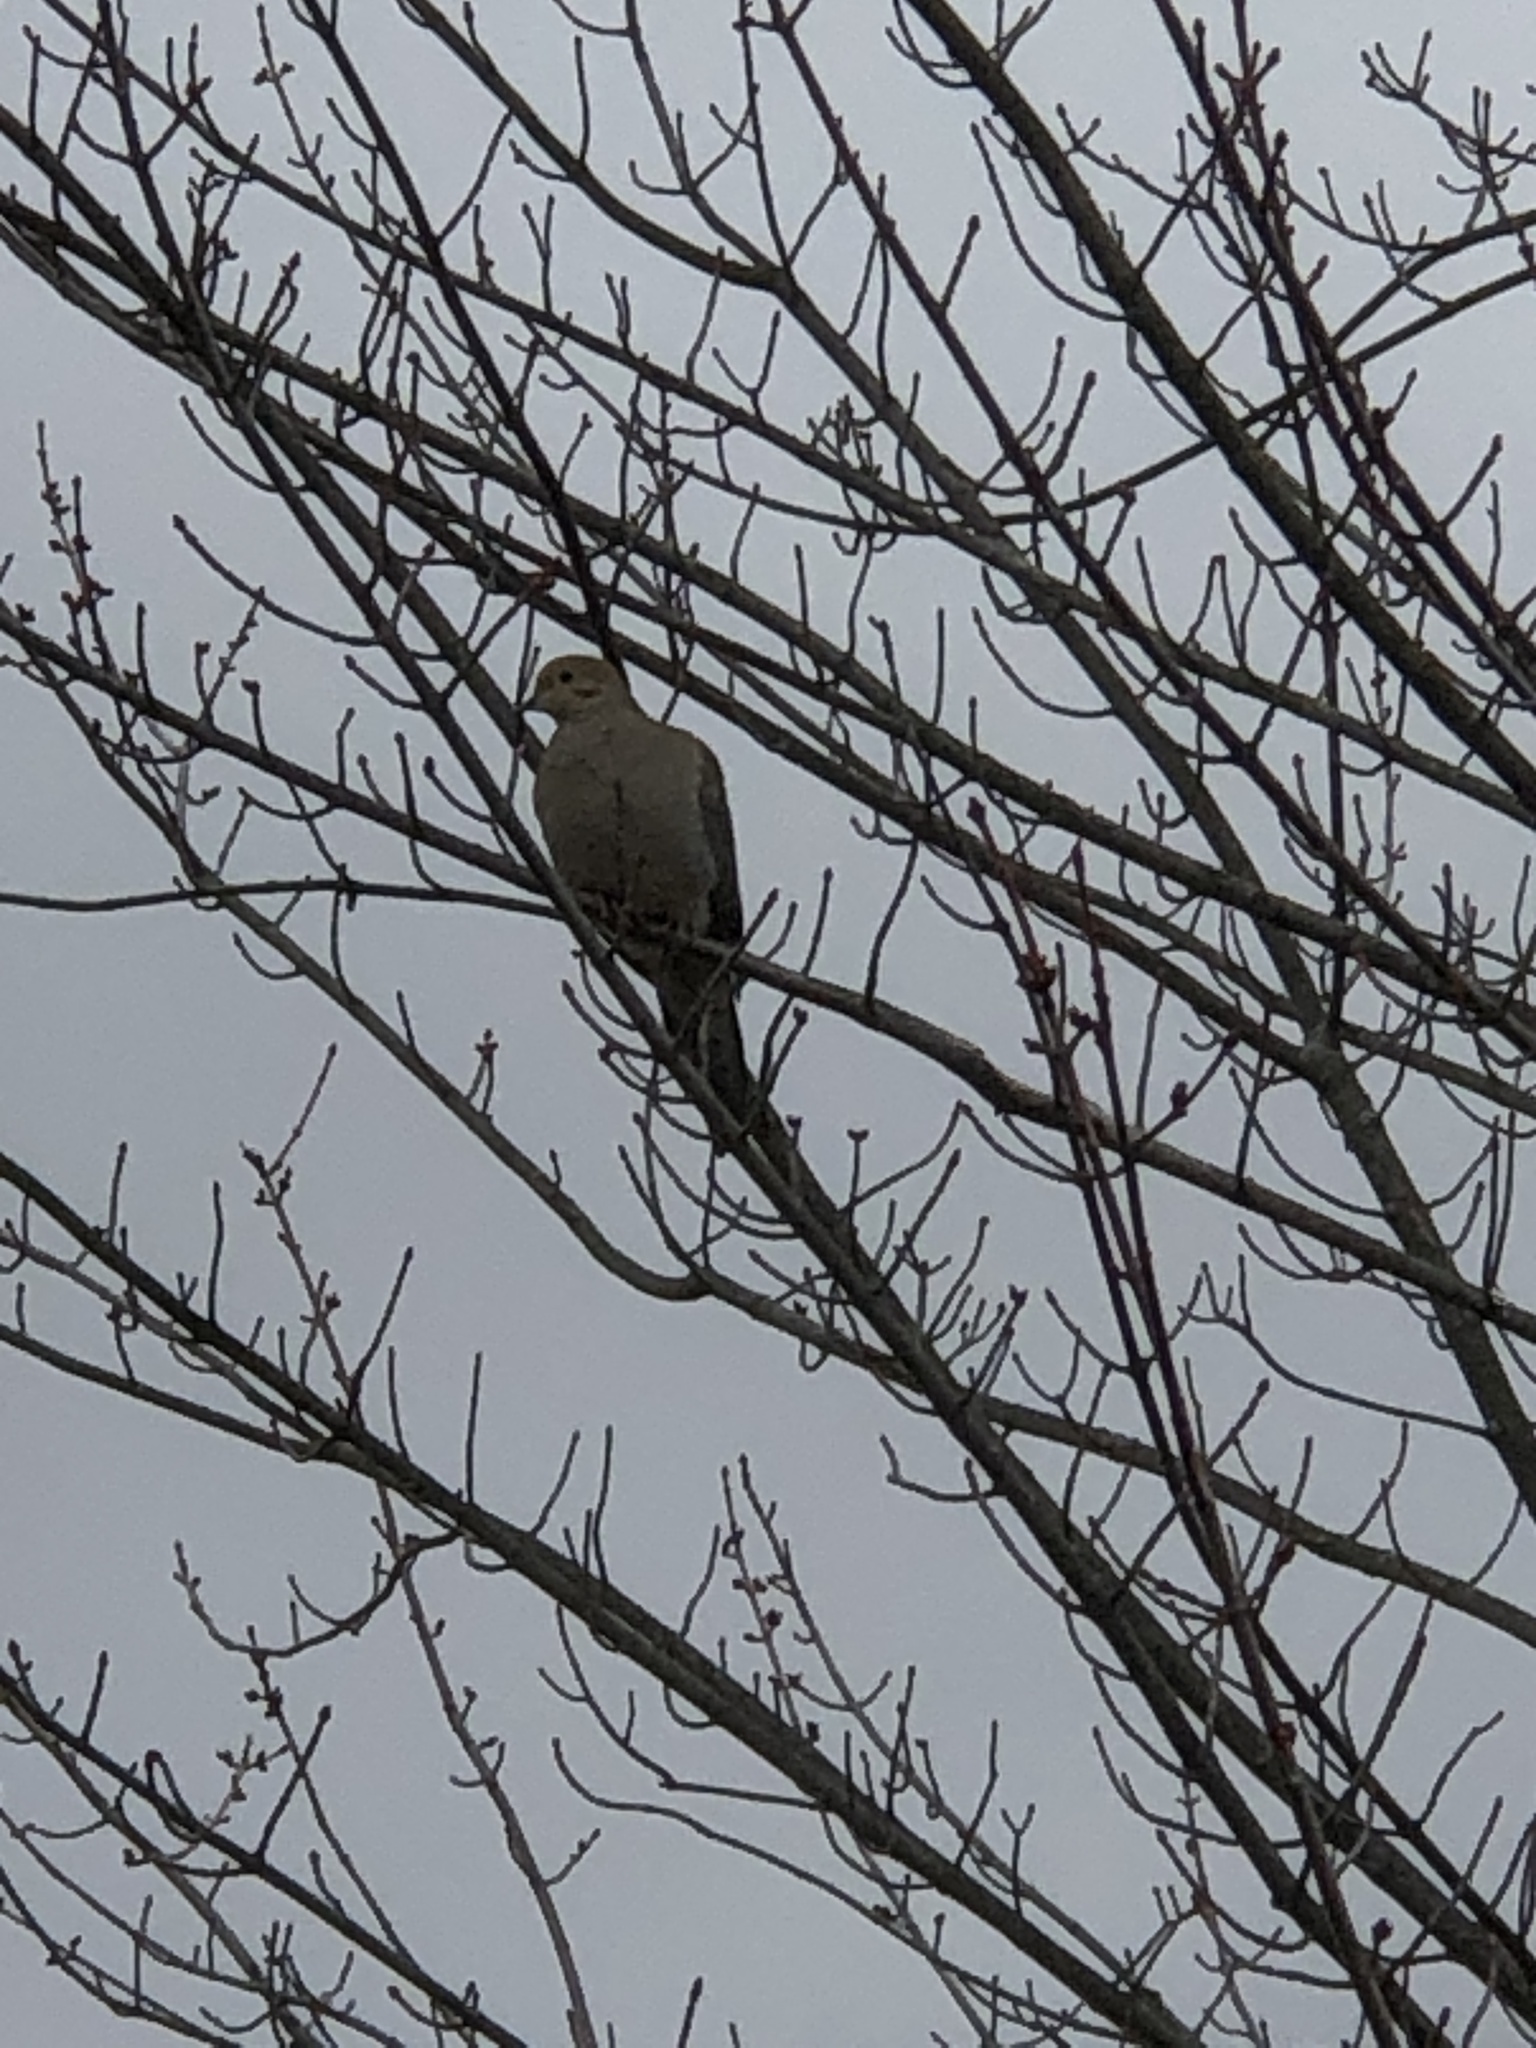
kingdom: Animalia
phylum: Chordata
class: Aves
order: Columbiformes
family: Columbidae
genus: Zenaida
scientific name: Zenaida macroura
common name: Mourning dove
